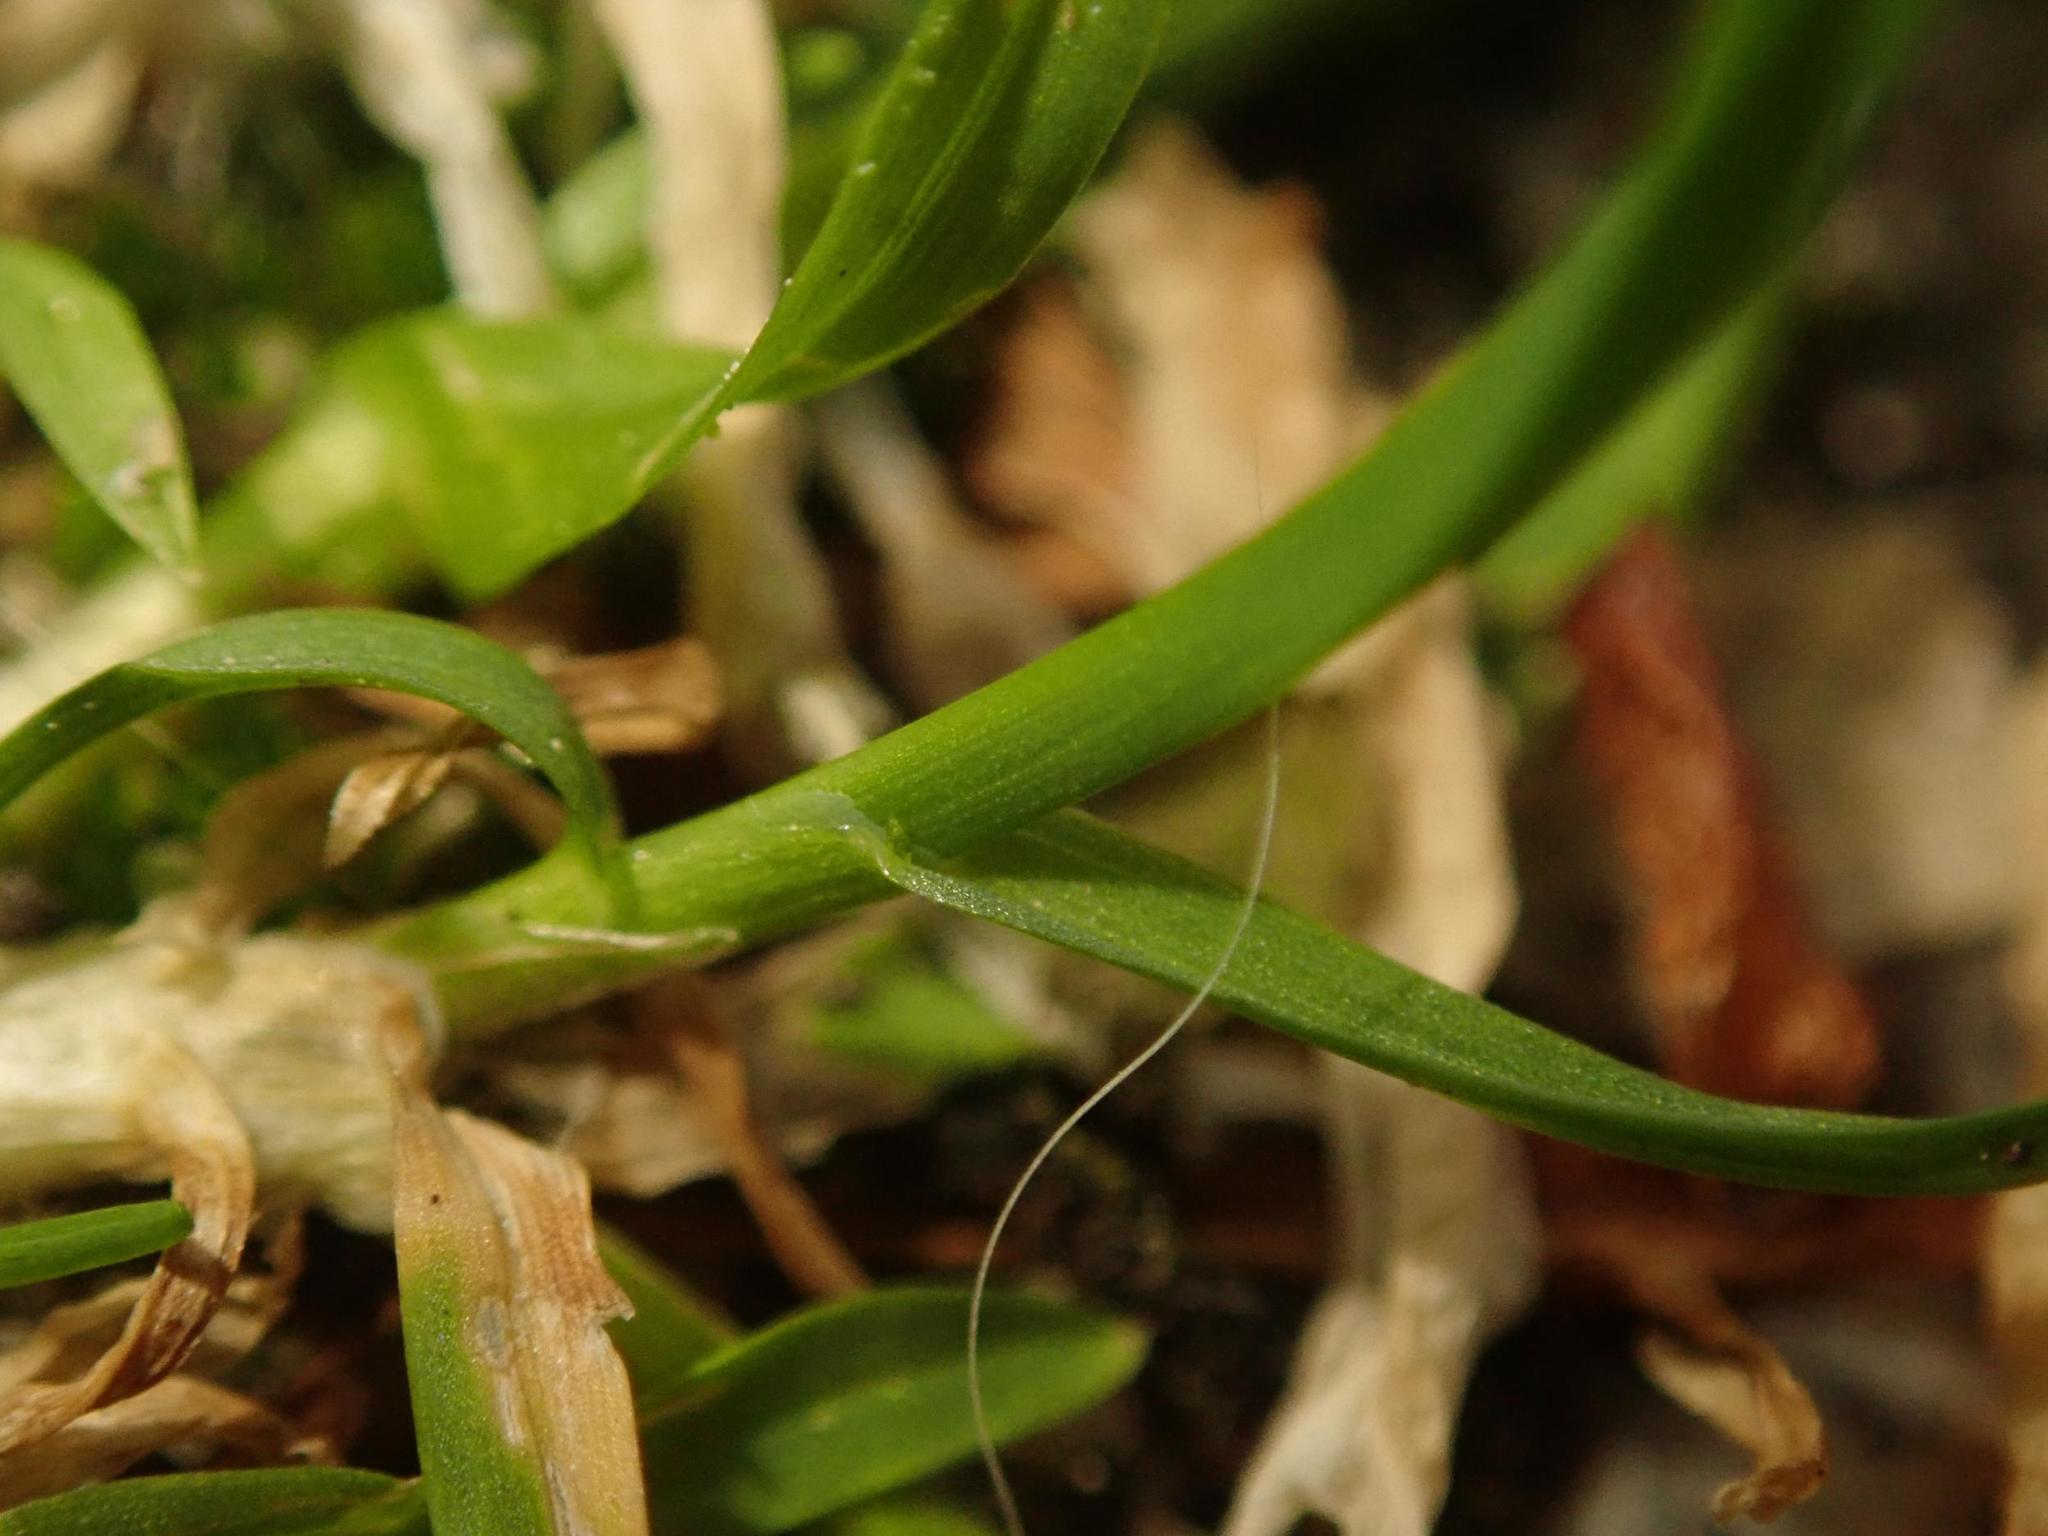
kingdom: Plantae
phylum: Tracheophyta
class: Liliopsida
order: Poales
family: Poaceae
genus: Poa
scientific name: Poa annua
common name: Annual bluegrass
